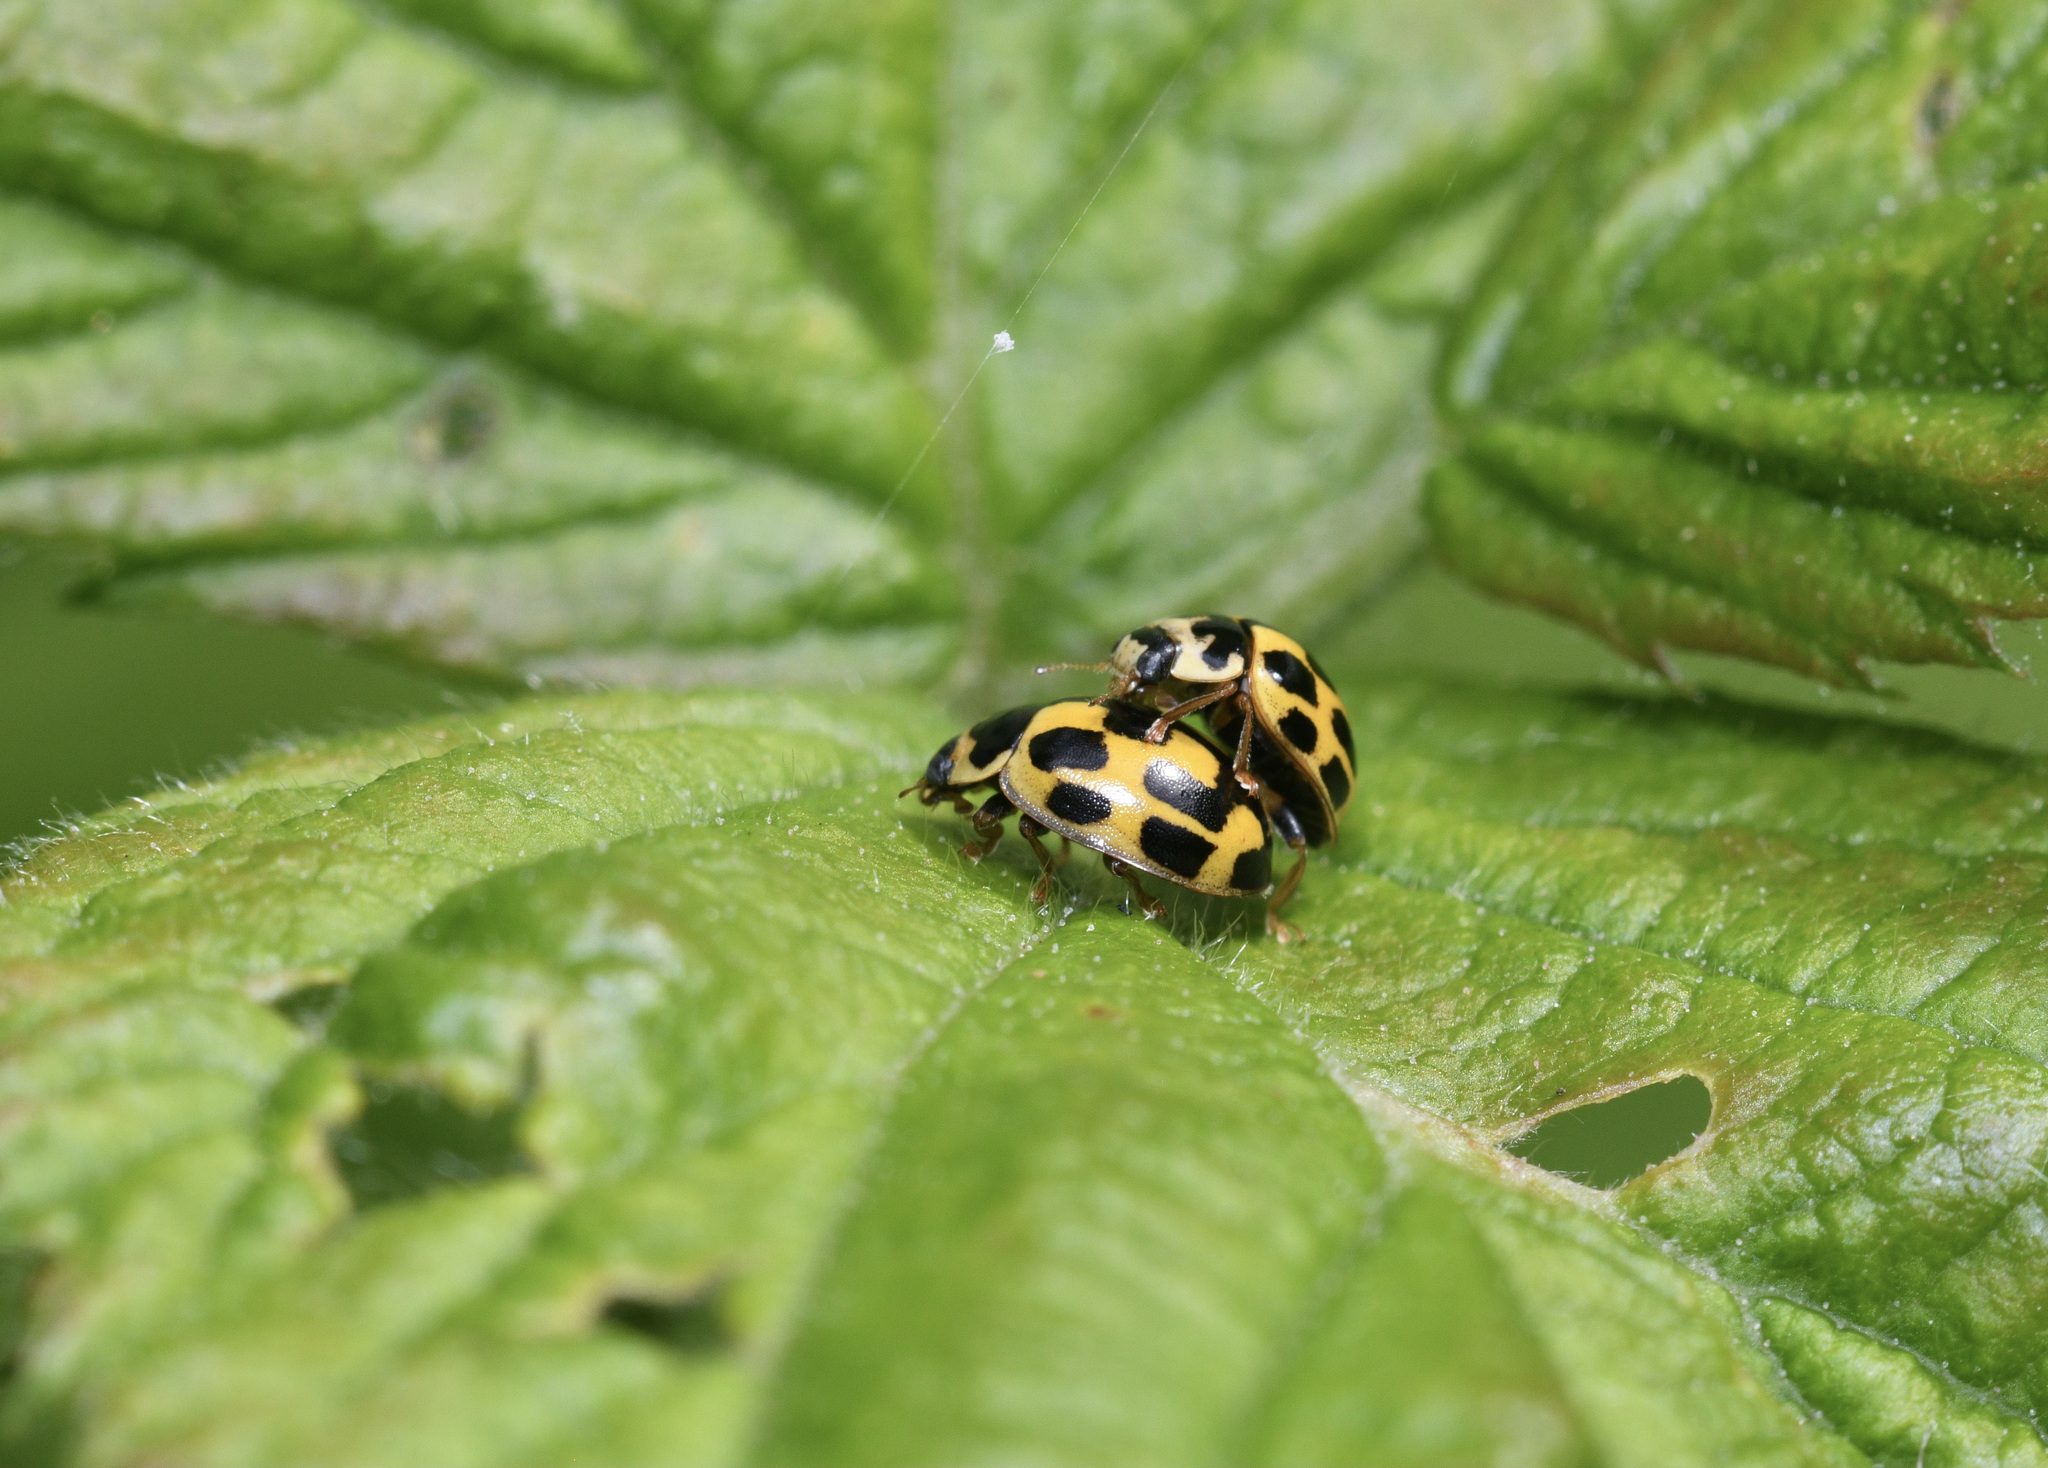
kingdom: Animalia
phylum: Arthropoda
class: Insecta
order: Coleoptera
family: Coccinellidae
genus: Propylaea
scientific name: Propylaea quatuordecimpunctata
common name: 14-spotted ladybird beetle
